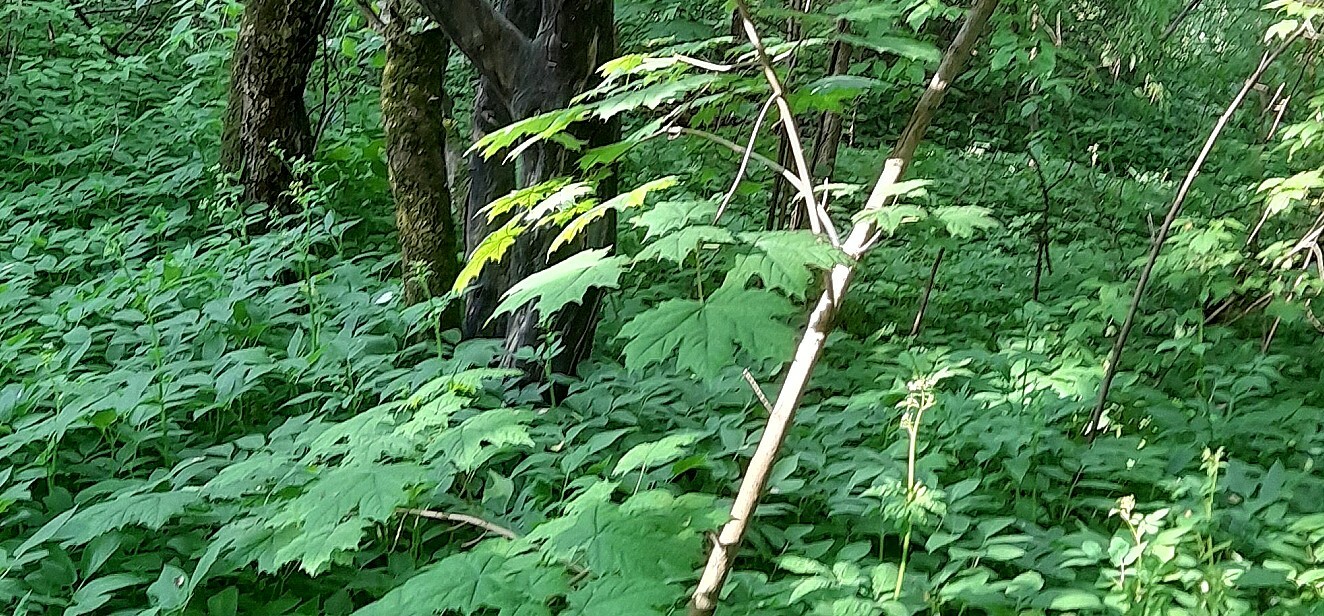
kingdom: Plantae
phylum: Tracheophyta
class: Magnoliopsida
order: Sapindales
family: Sapindaceae
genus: Acer
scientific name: Acer platanoides
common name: Norway maple
